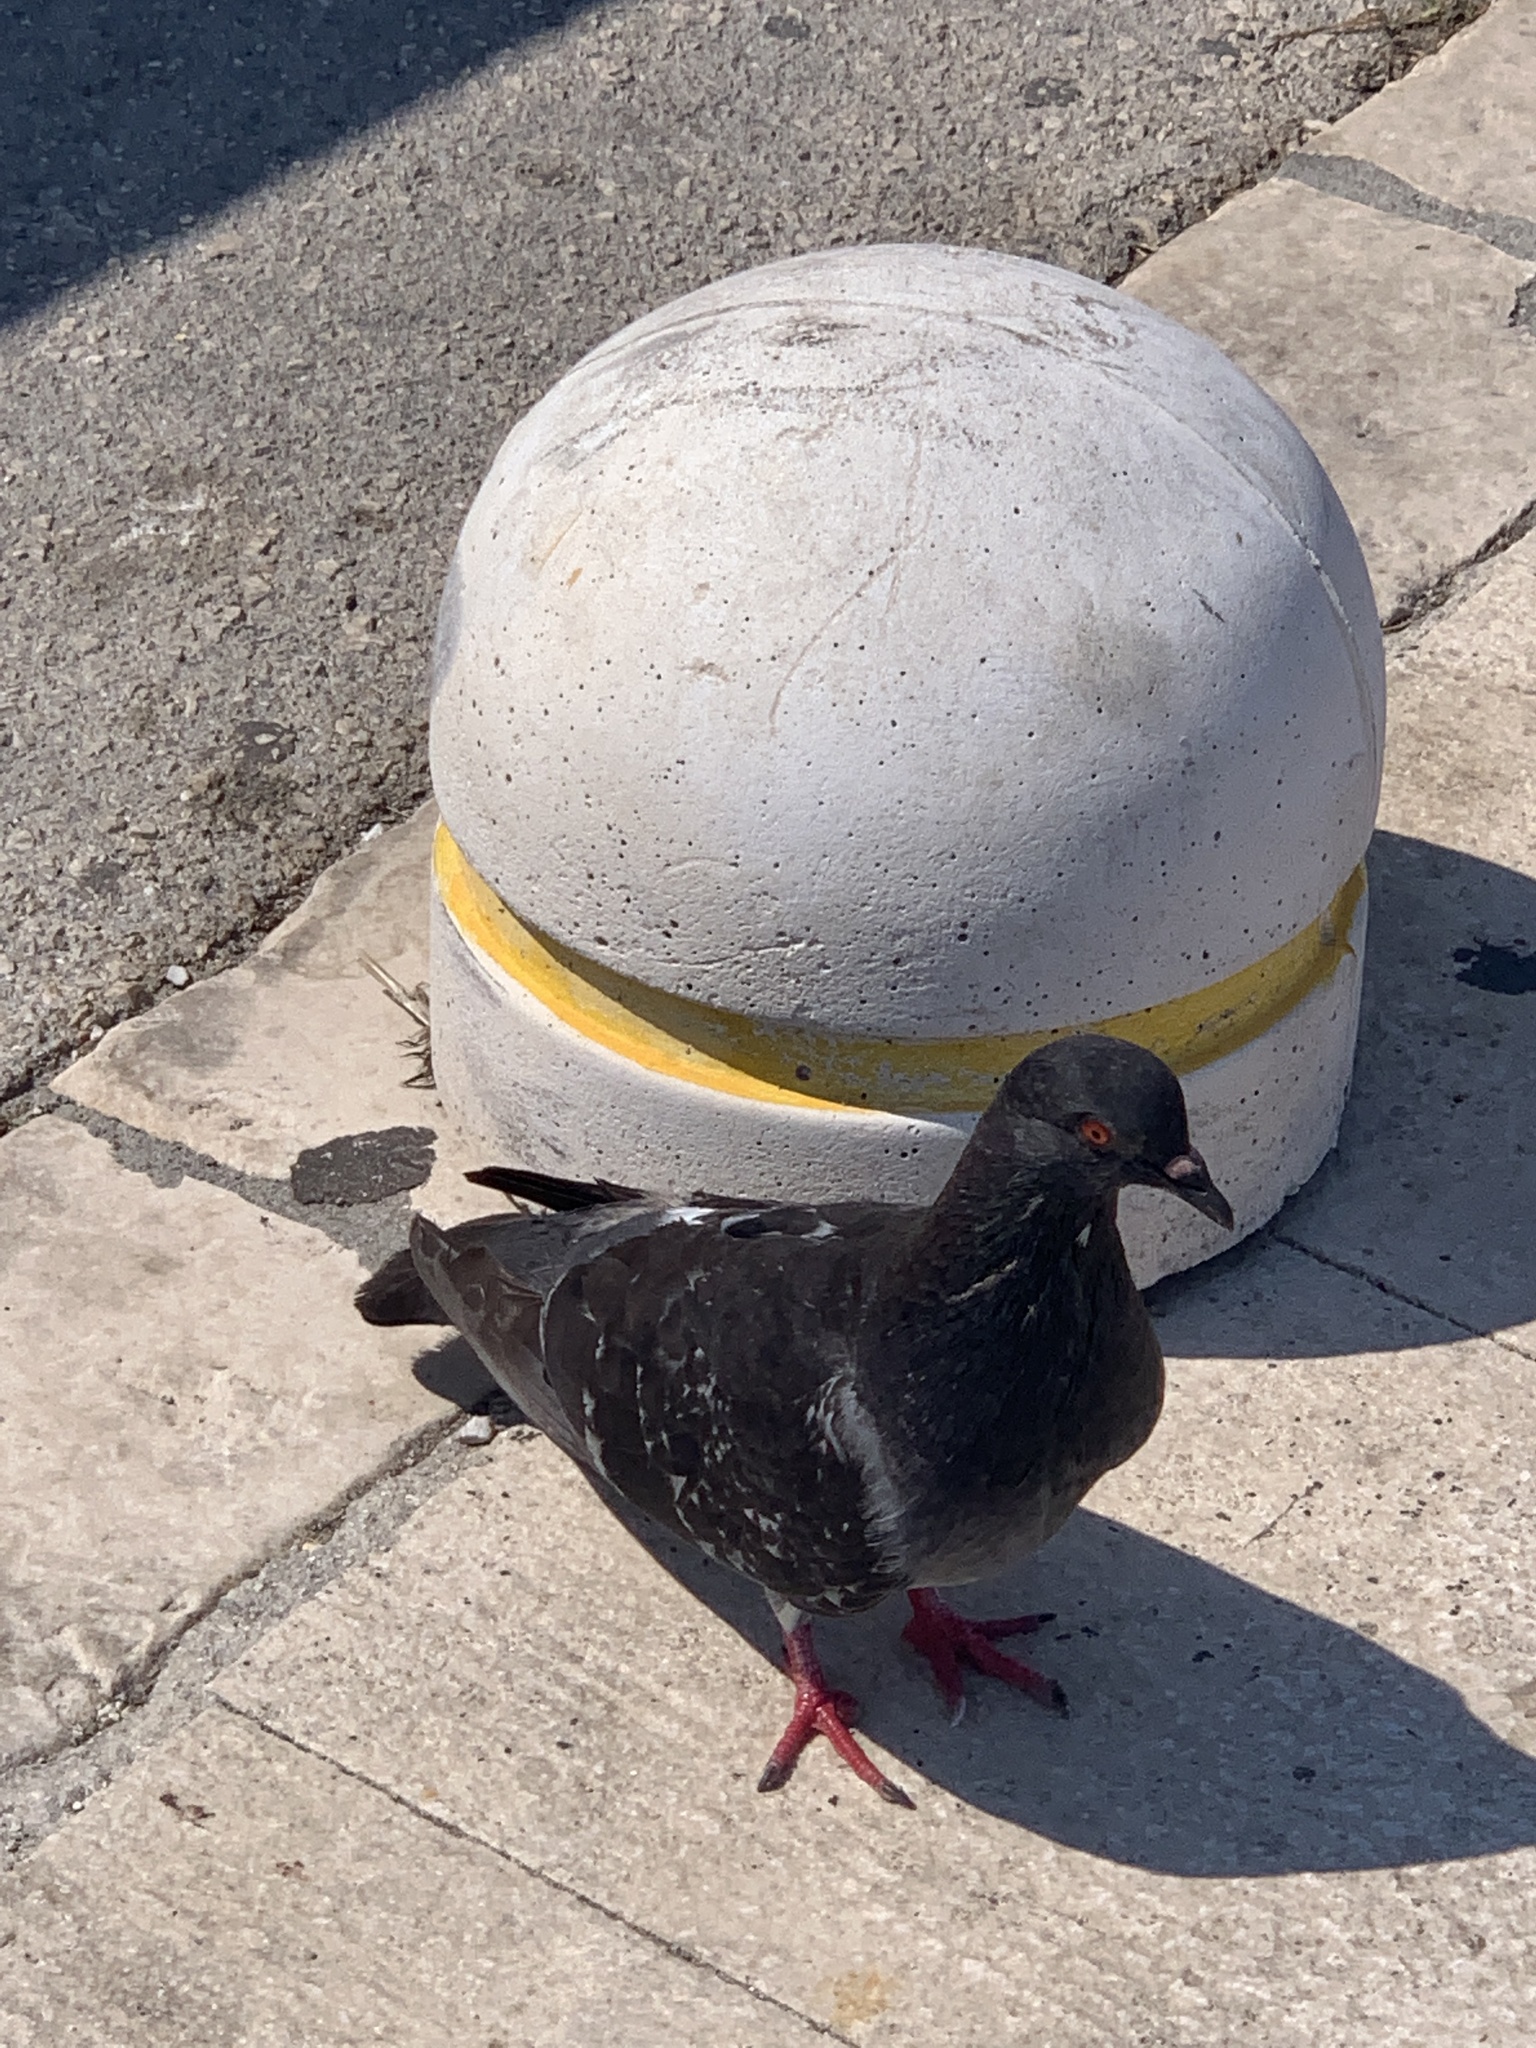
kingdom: Animalia
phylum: Chordata
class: Aves
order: Columbiformes
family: Columbidae
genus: Columba
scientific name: Columba livia
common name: Rock pigeon
